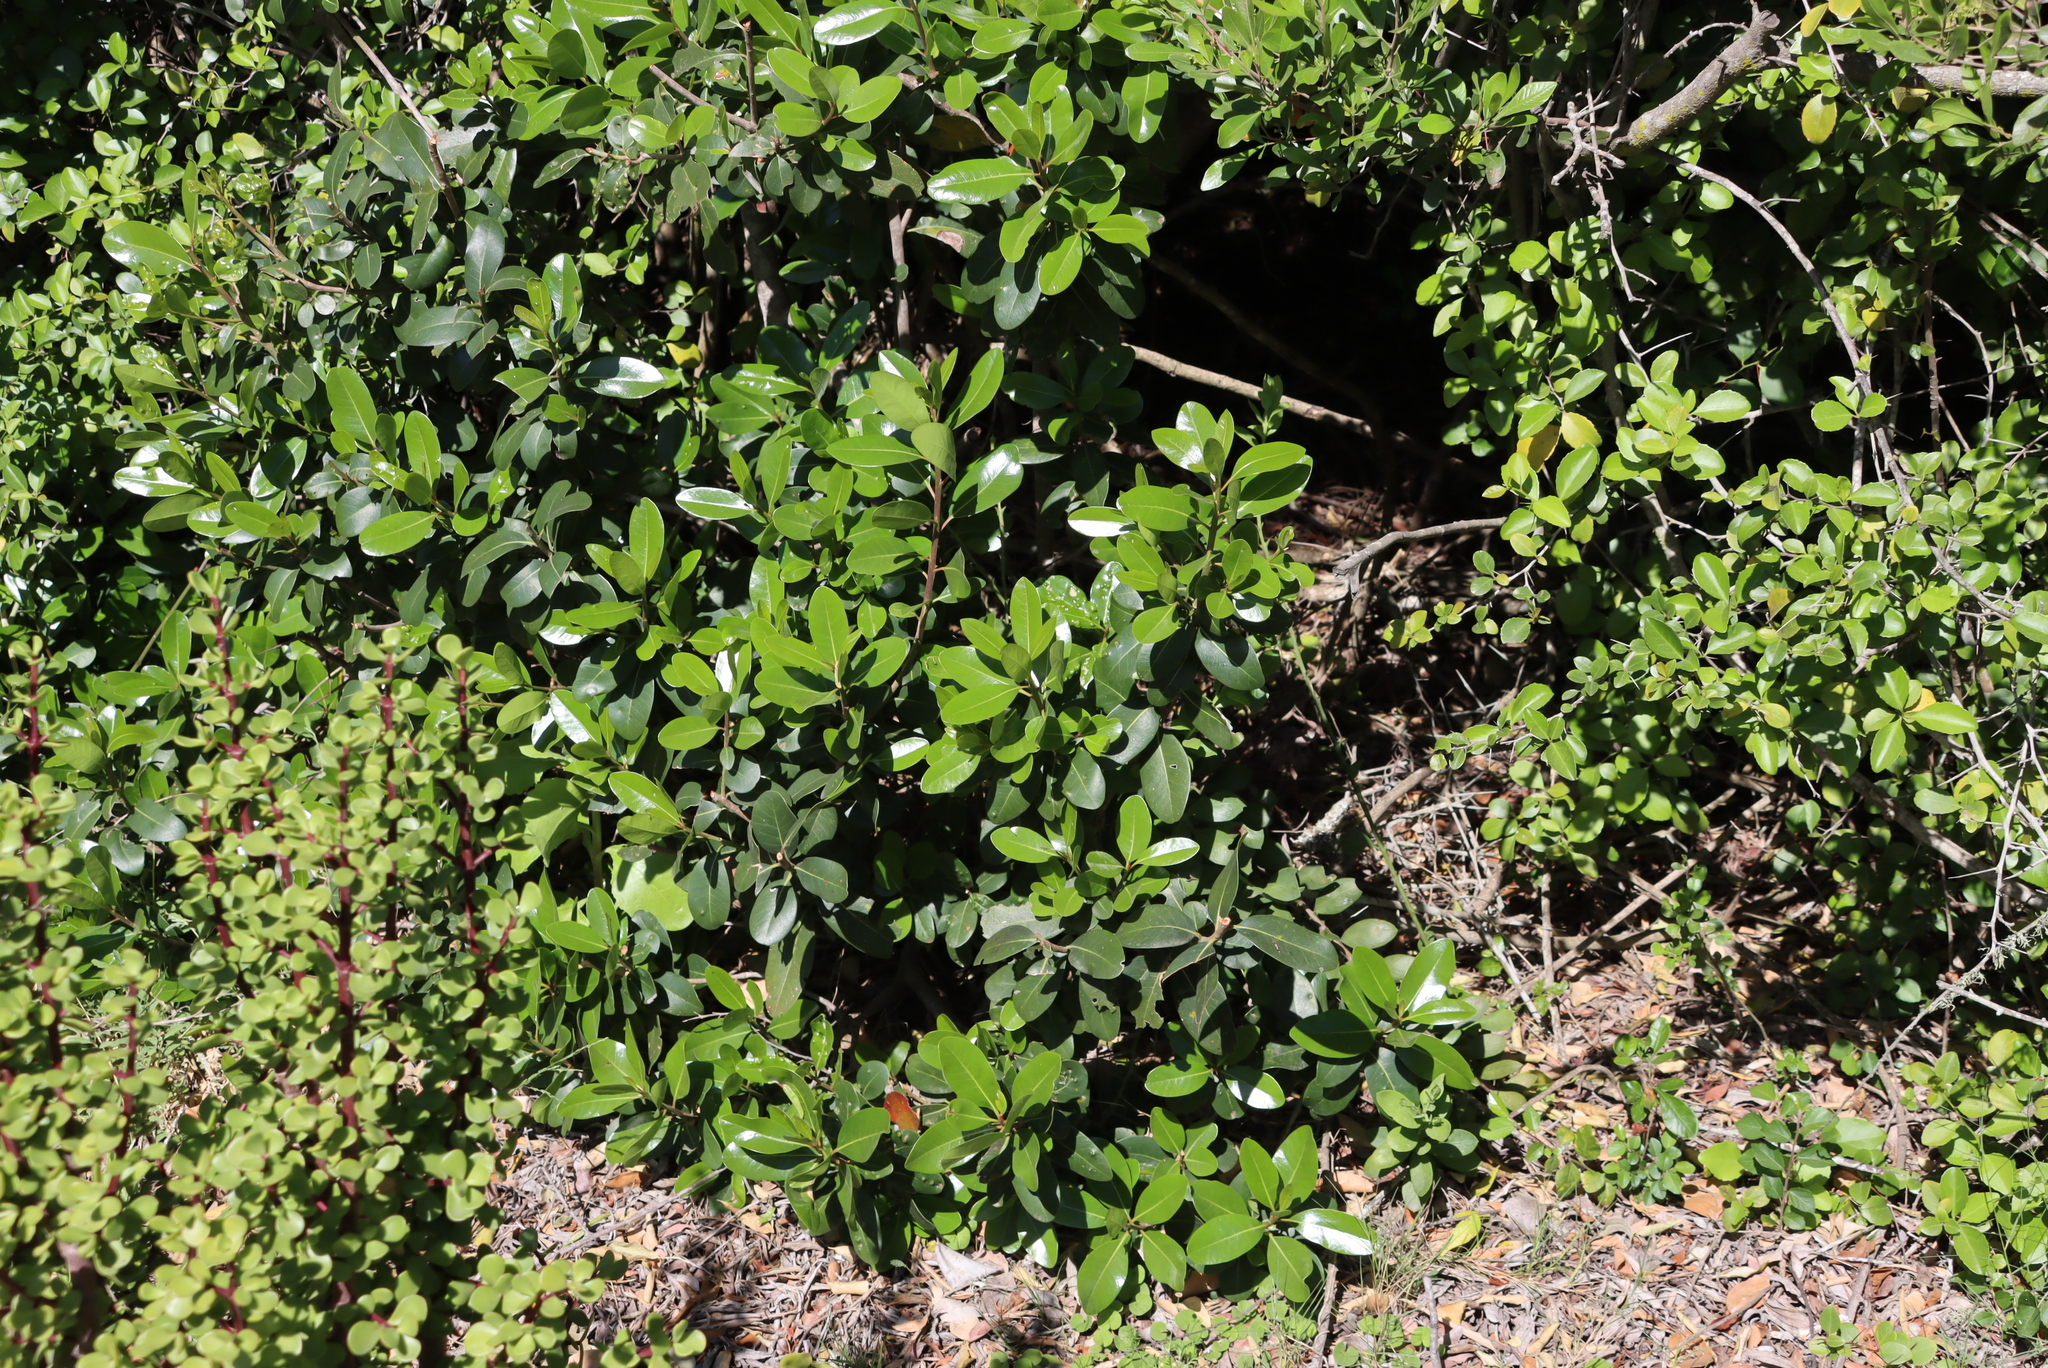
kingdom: Plantae
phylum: Tracheophyta
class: Magnoliopsida
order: Ericales
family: Sapotaceae
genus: Sideroxylon
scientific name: Sideroxylon inerme
